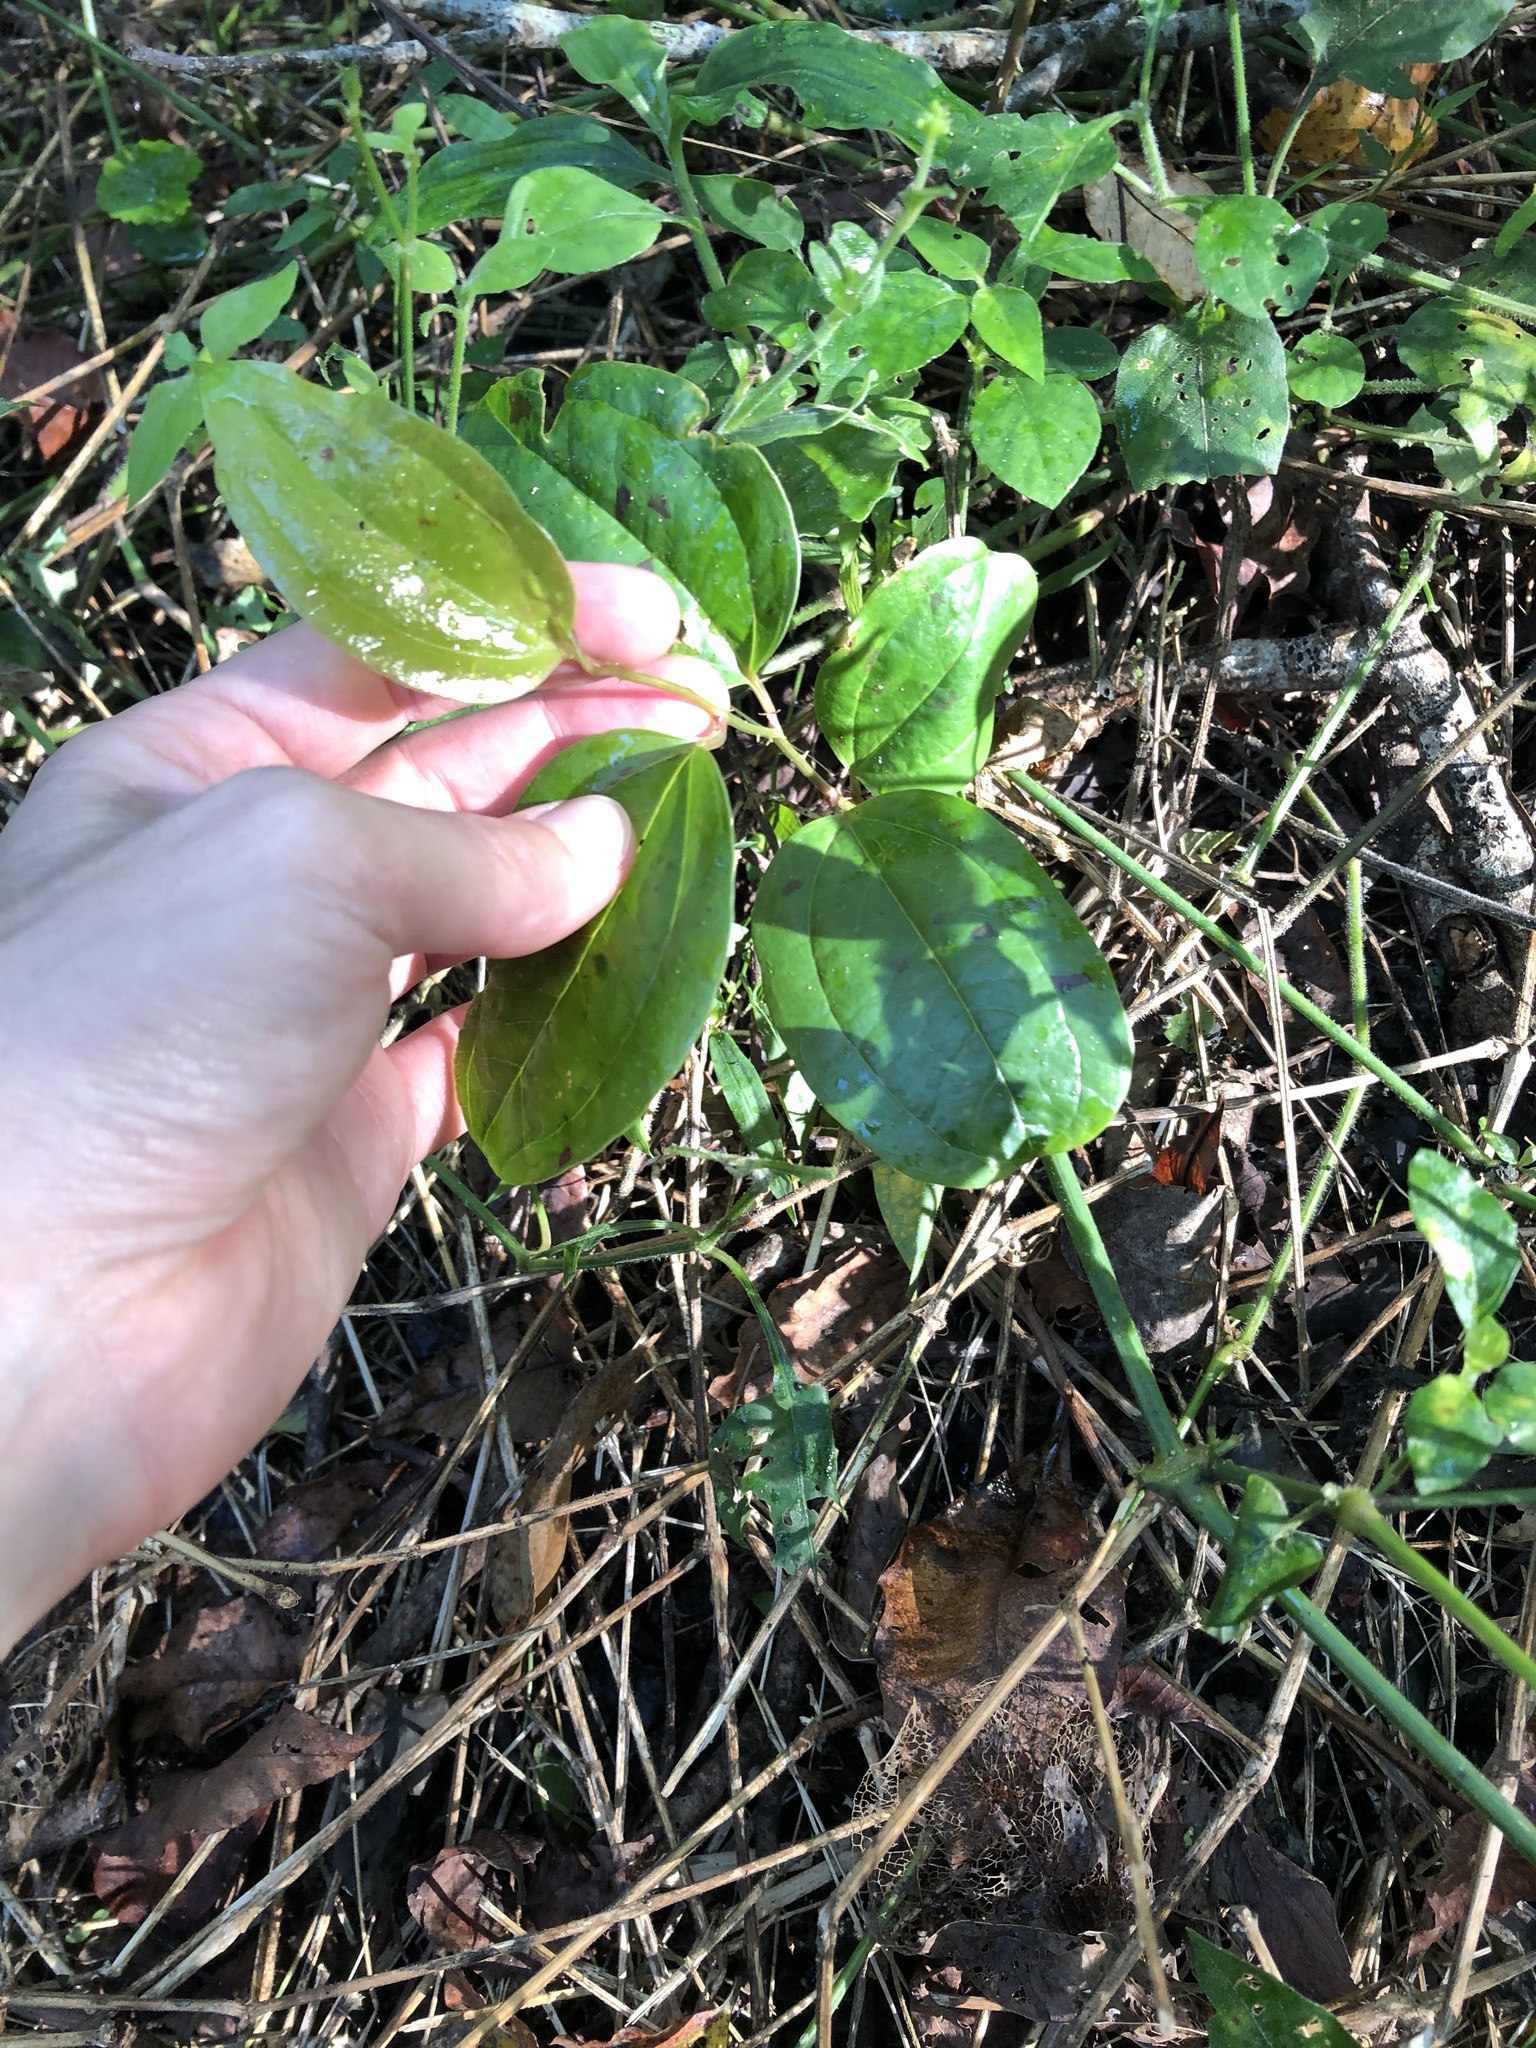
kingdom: Plantae
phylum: Tracheophyta
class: Liliopsida
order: Liliales
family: Smilacaceae
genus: Smilax
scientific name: Smilax anceps
